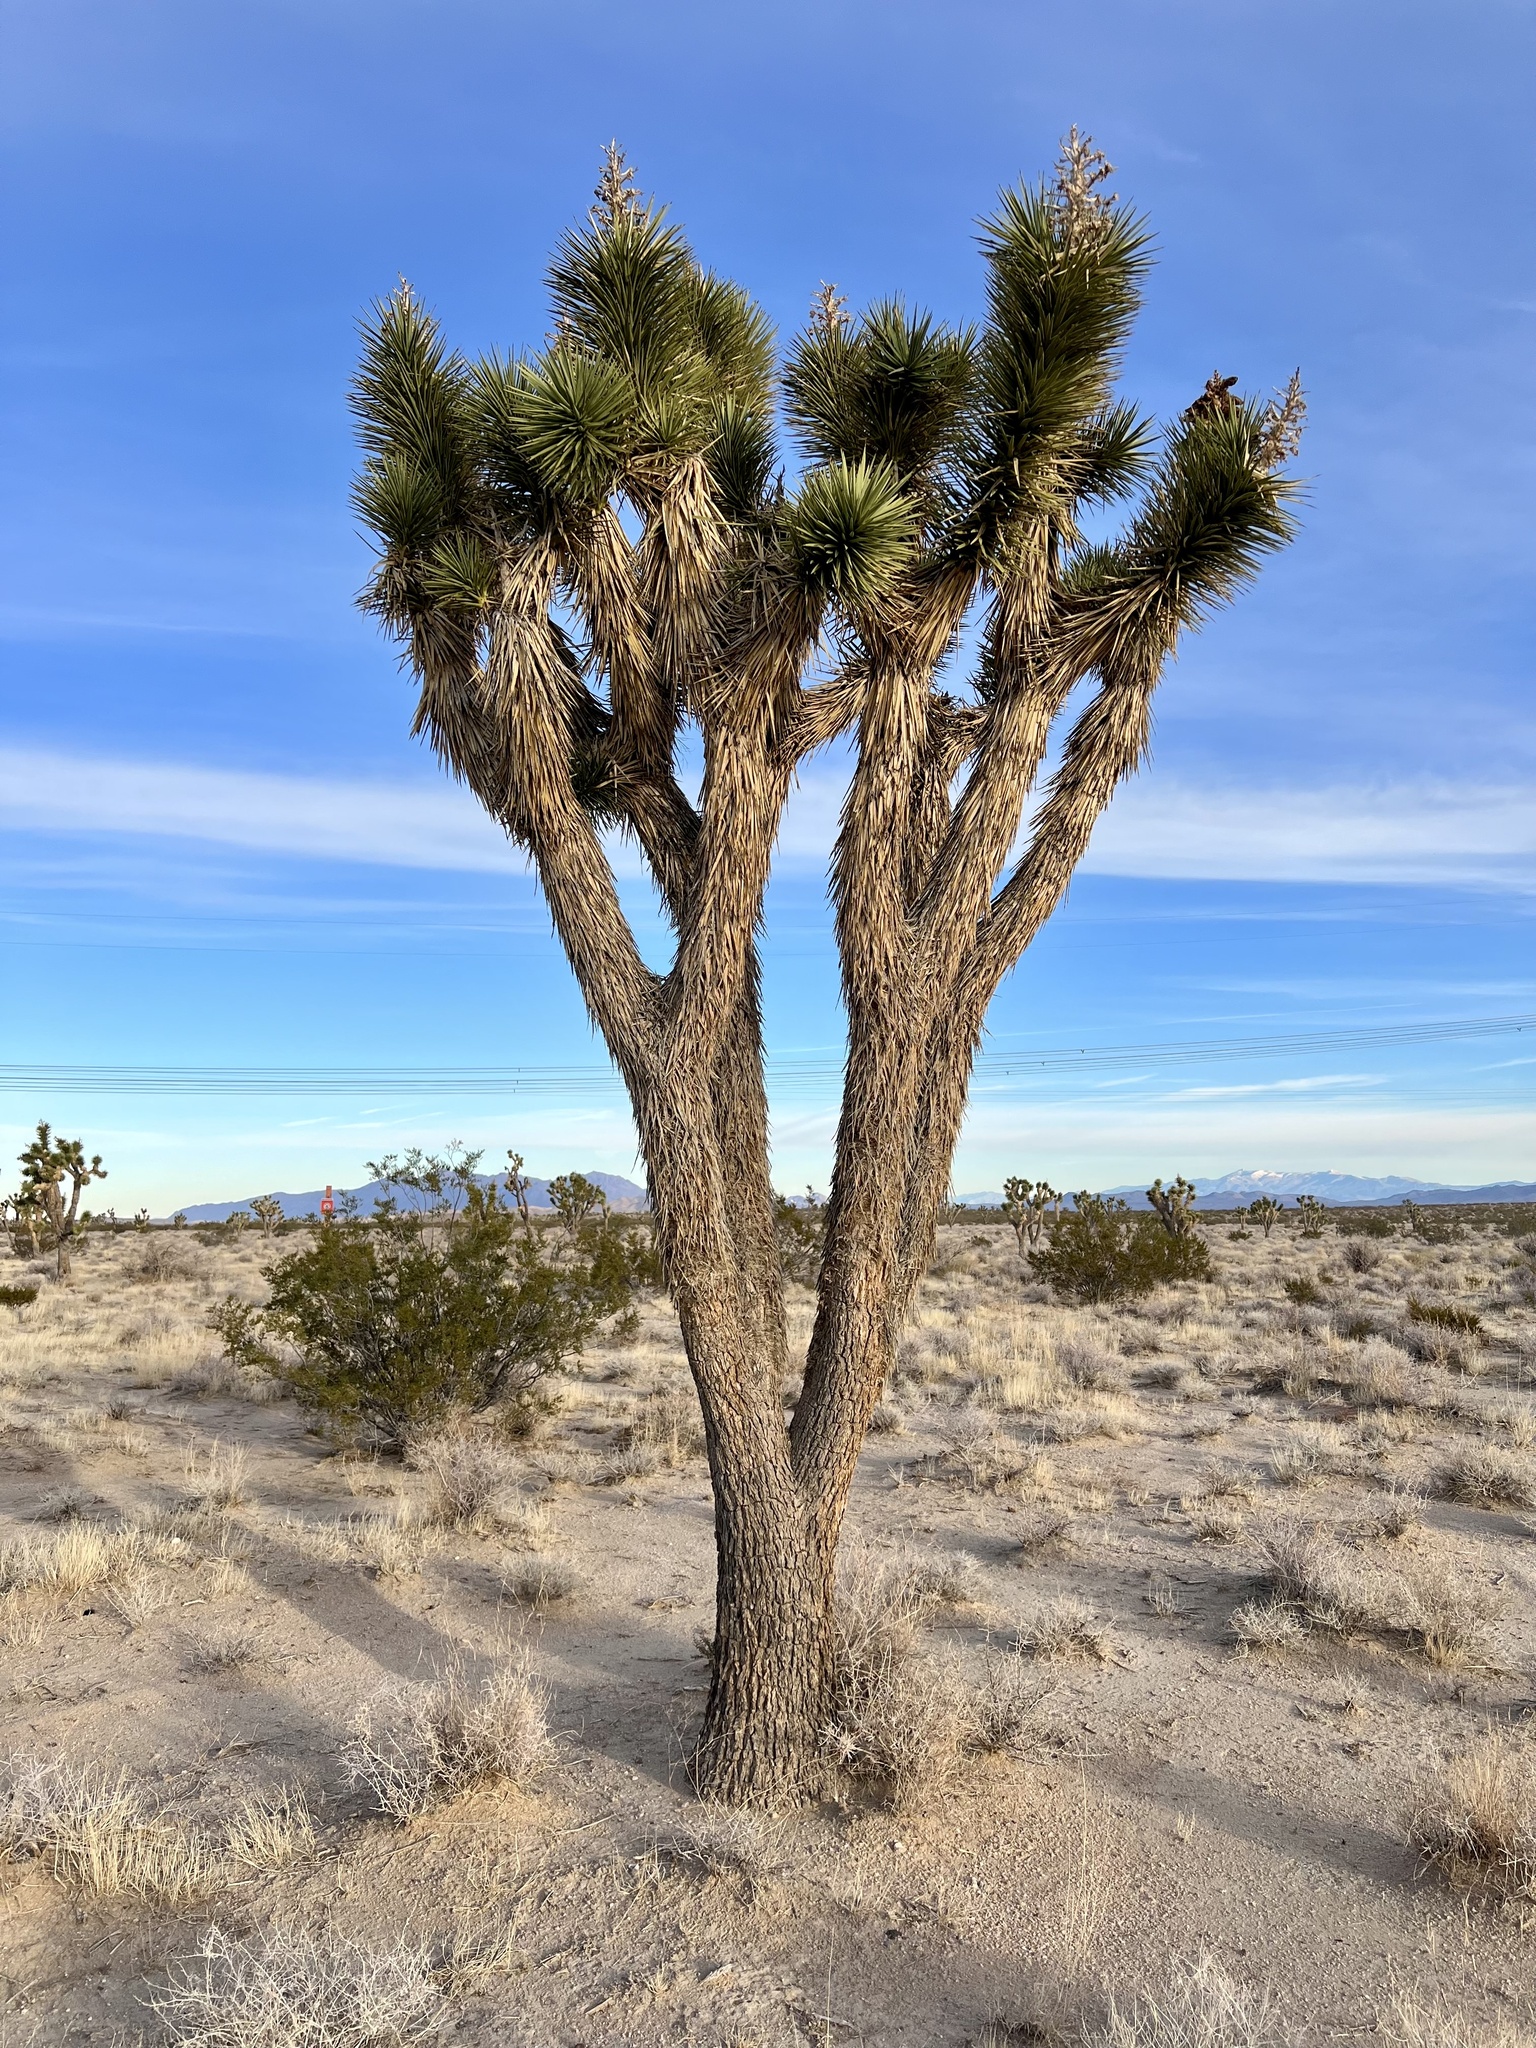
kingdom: Plantae
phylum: Tracheophyta
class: Liliopsida
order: Asparagales
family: Asparagaceae
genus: Yucca
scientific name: Yucca brevifolia
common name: Joshua tree
